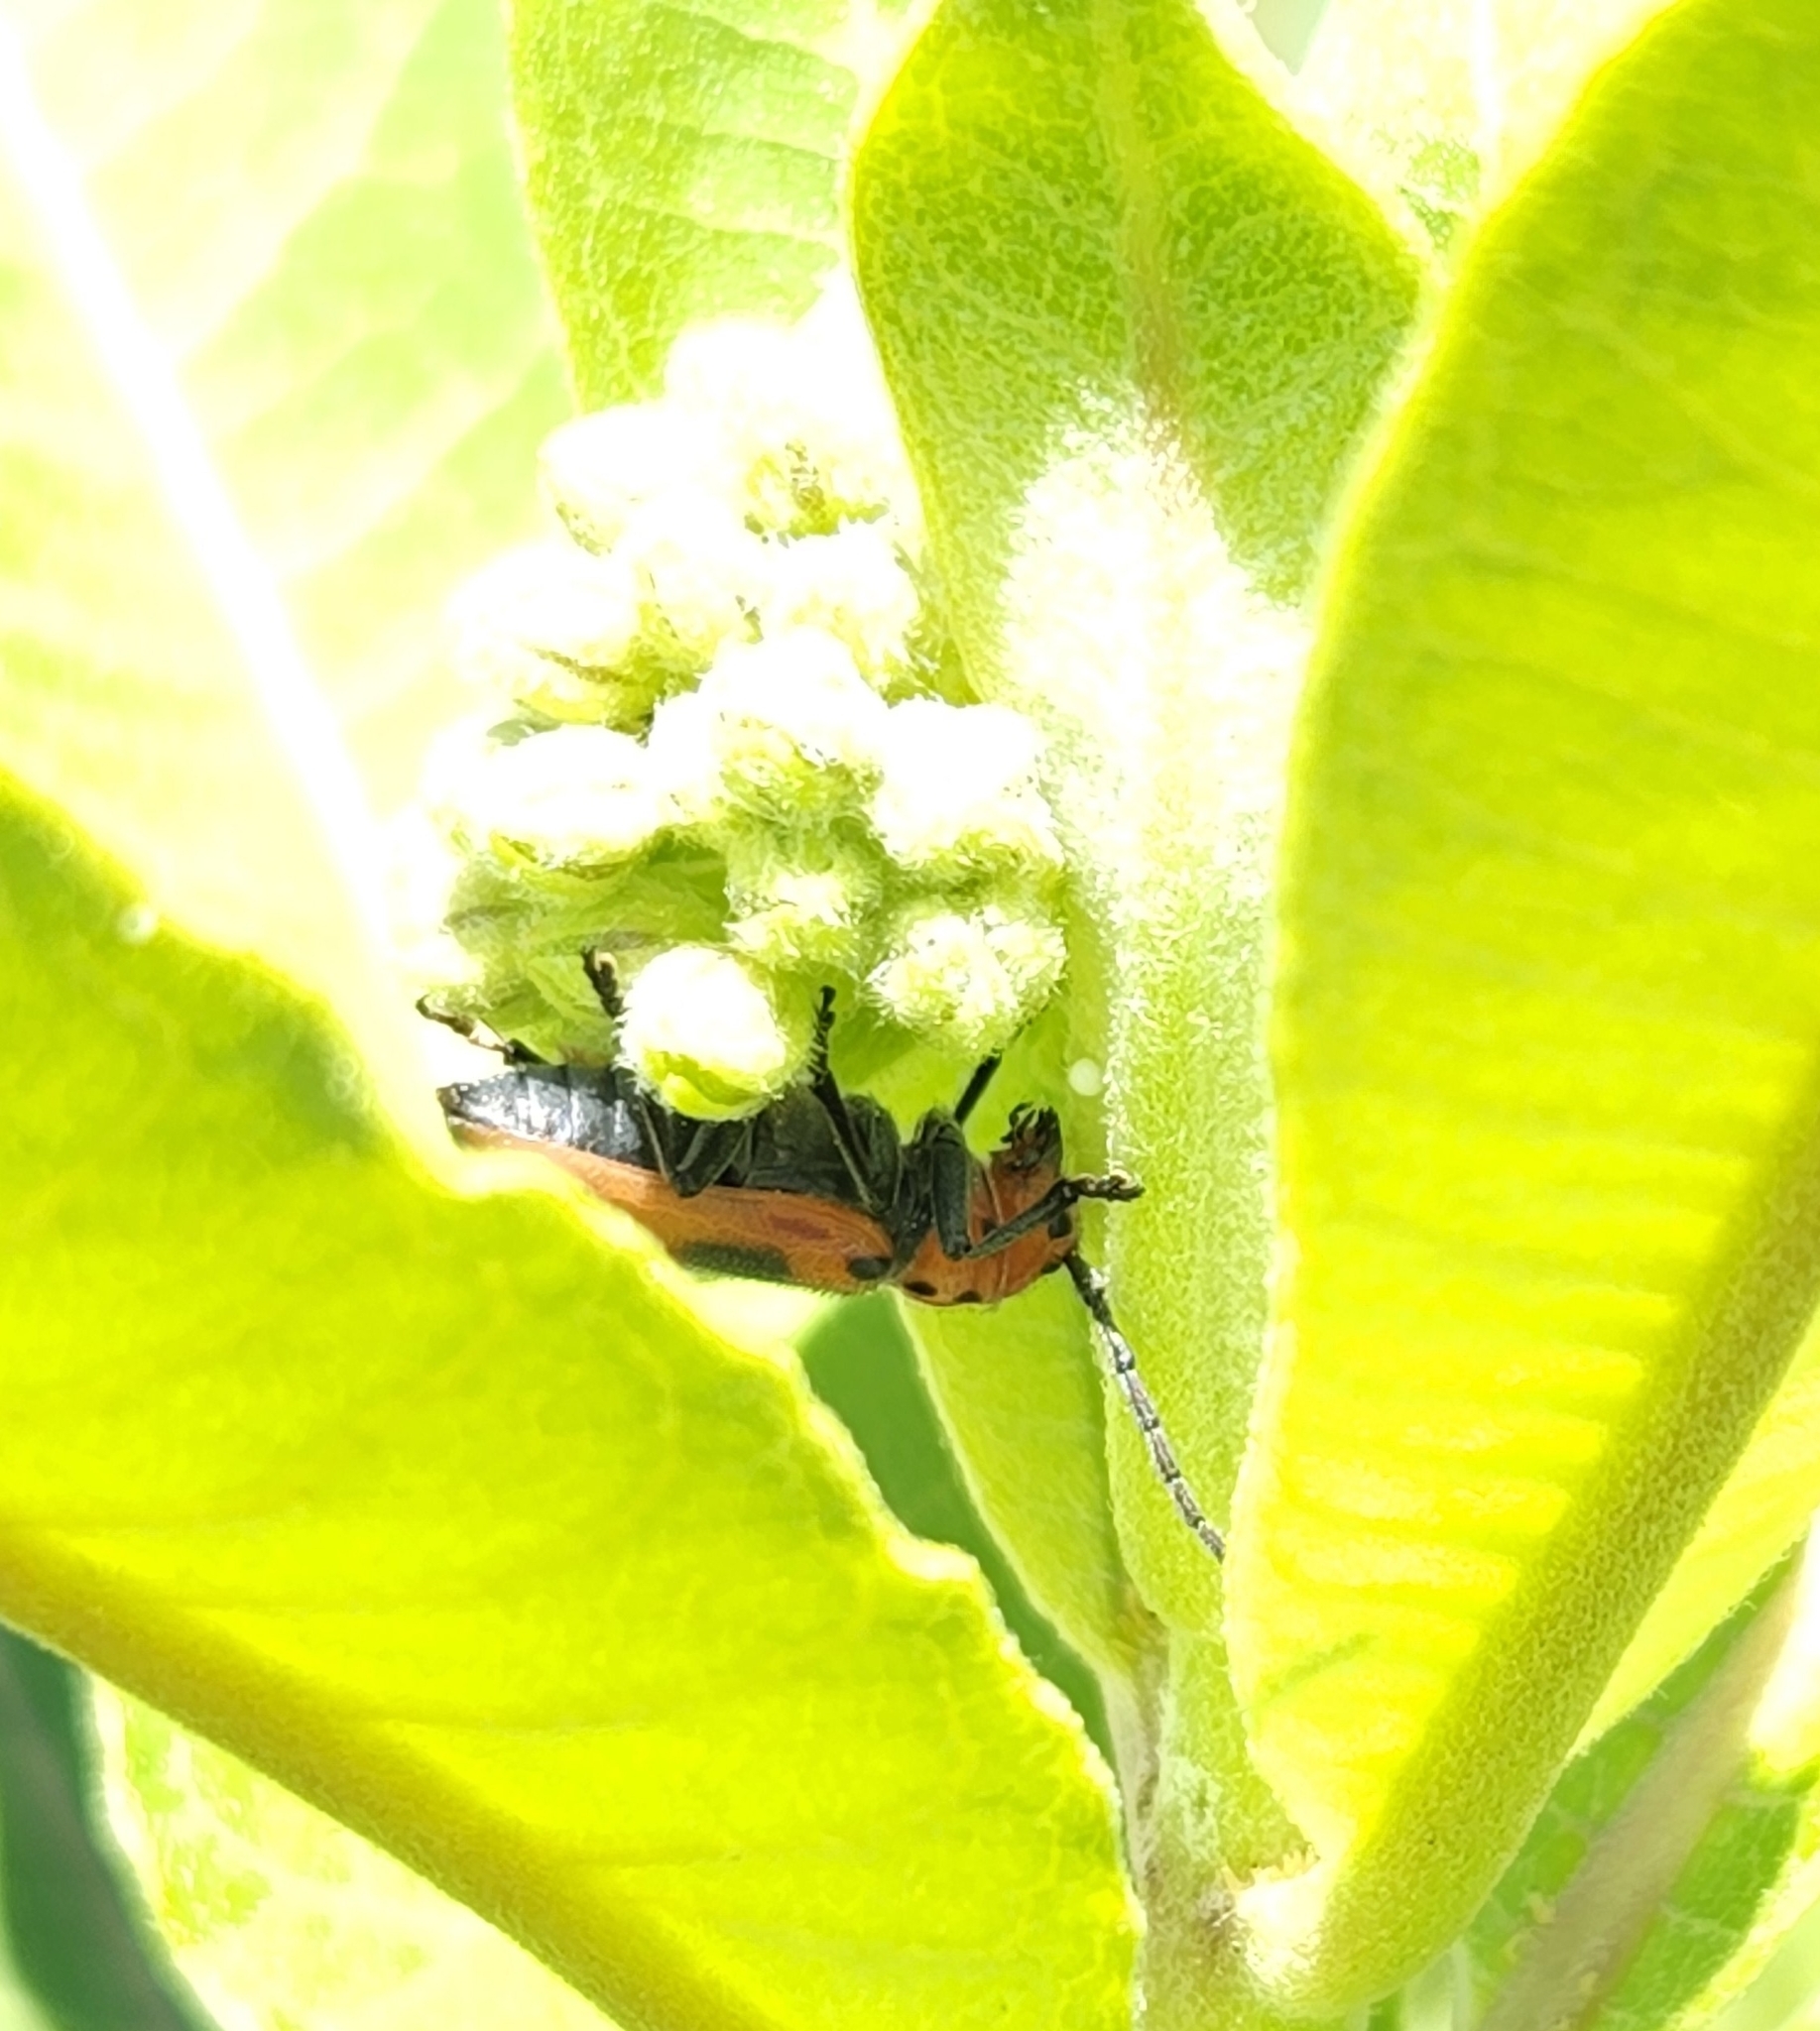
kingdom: Animalia
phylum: Arthropoda
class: Insecta
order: Coleoptera
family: Cerambycidae
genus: Tetraopes
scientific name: Tetraopes tetrophthalmus
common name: Red milkweed beetle
